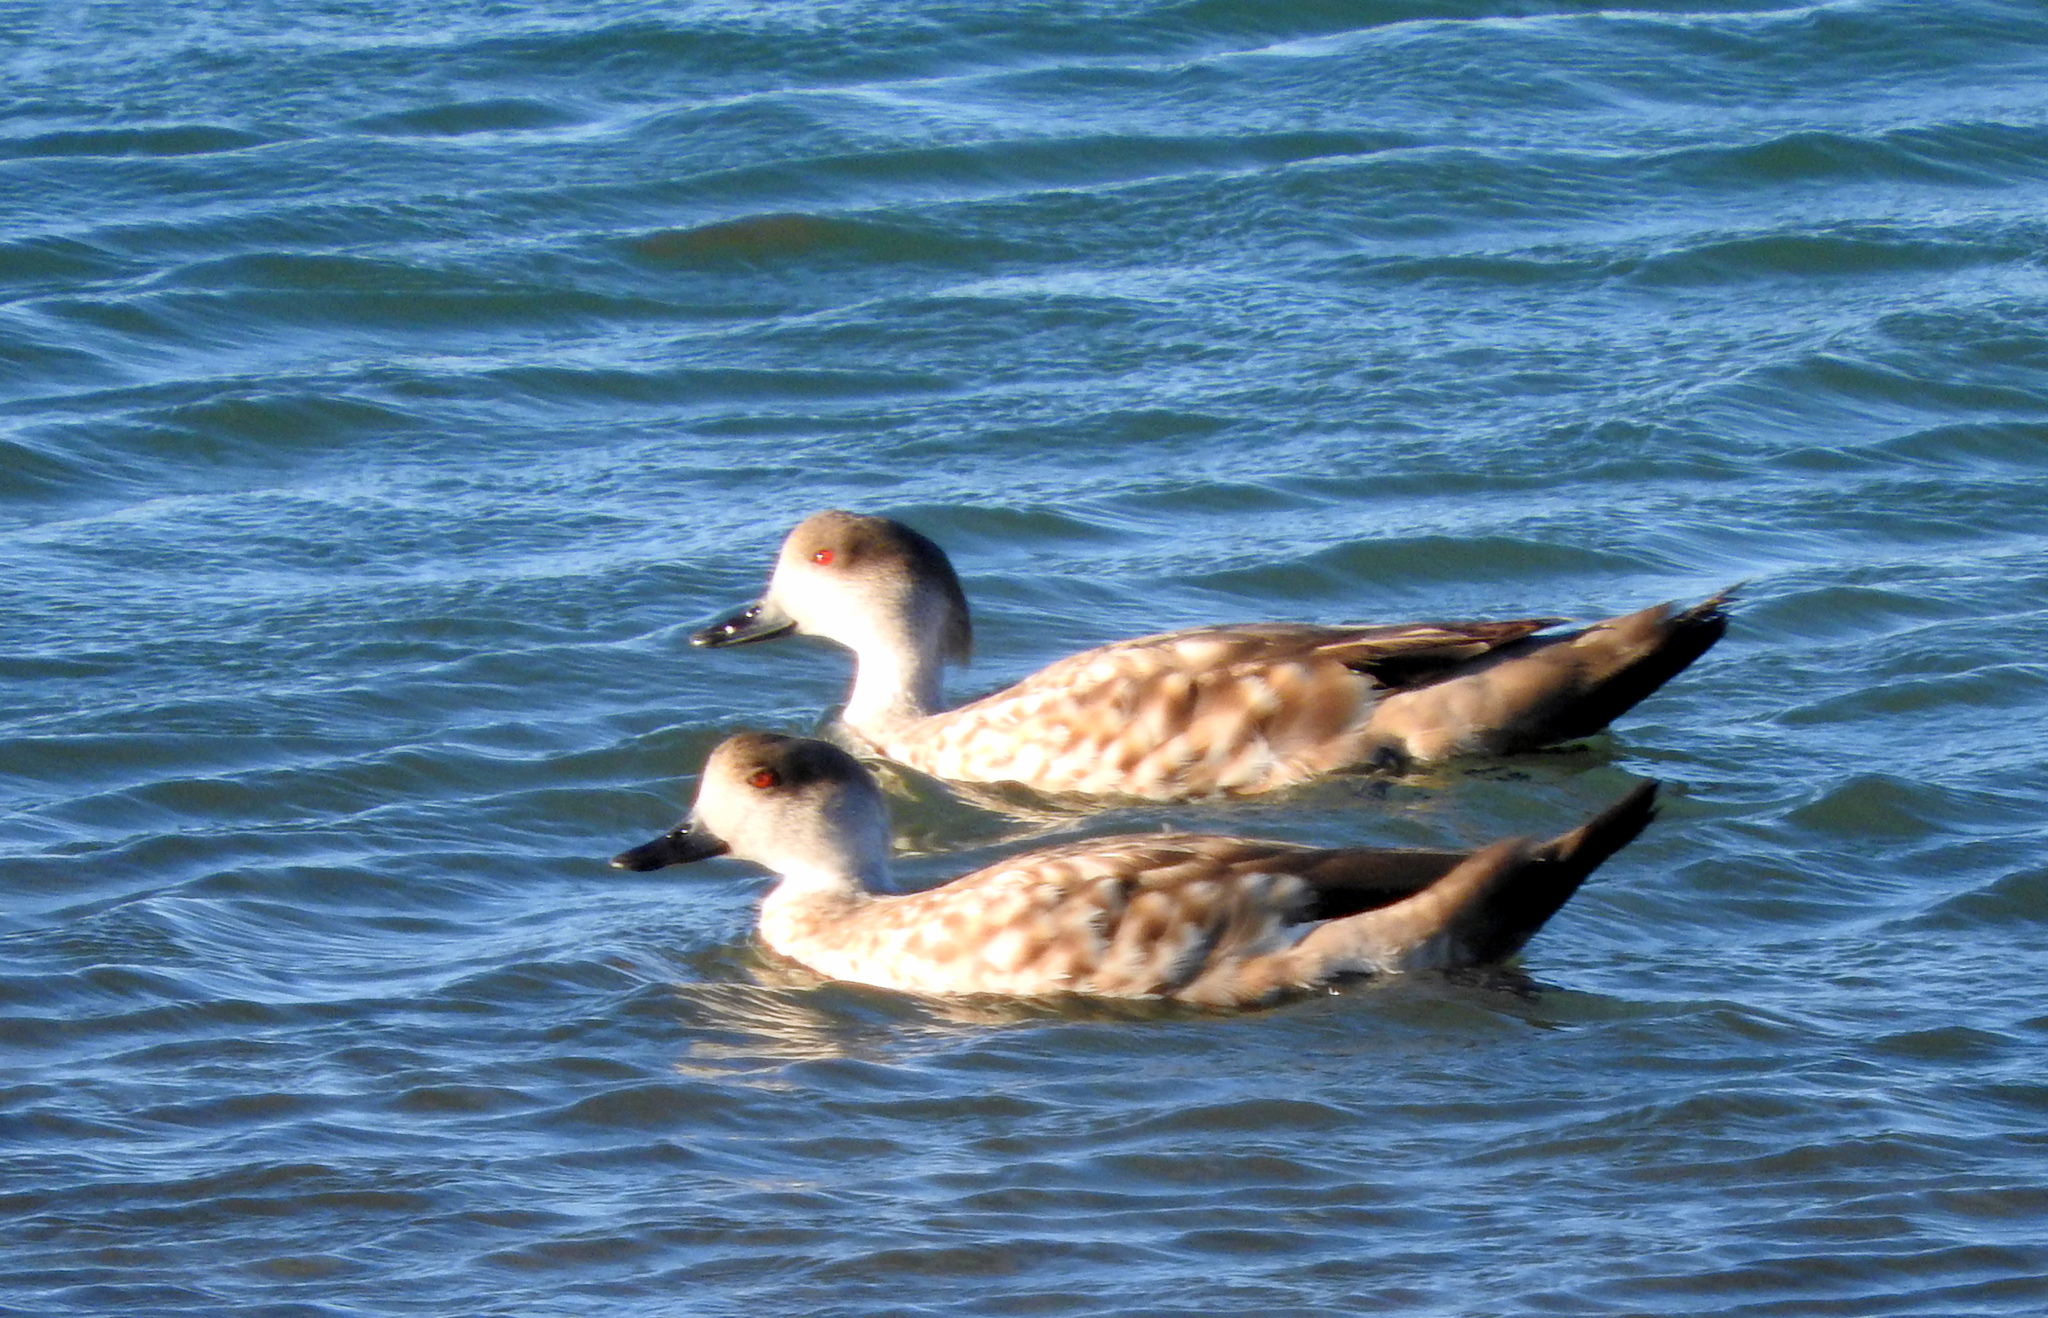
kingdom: Animalia
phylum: Chordata
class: Aves
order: Anseriformes
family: Anatidae
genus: Lophonetta
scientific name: Lophonetta specularioides
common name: Crested duck
